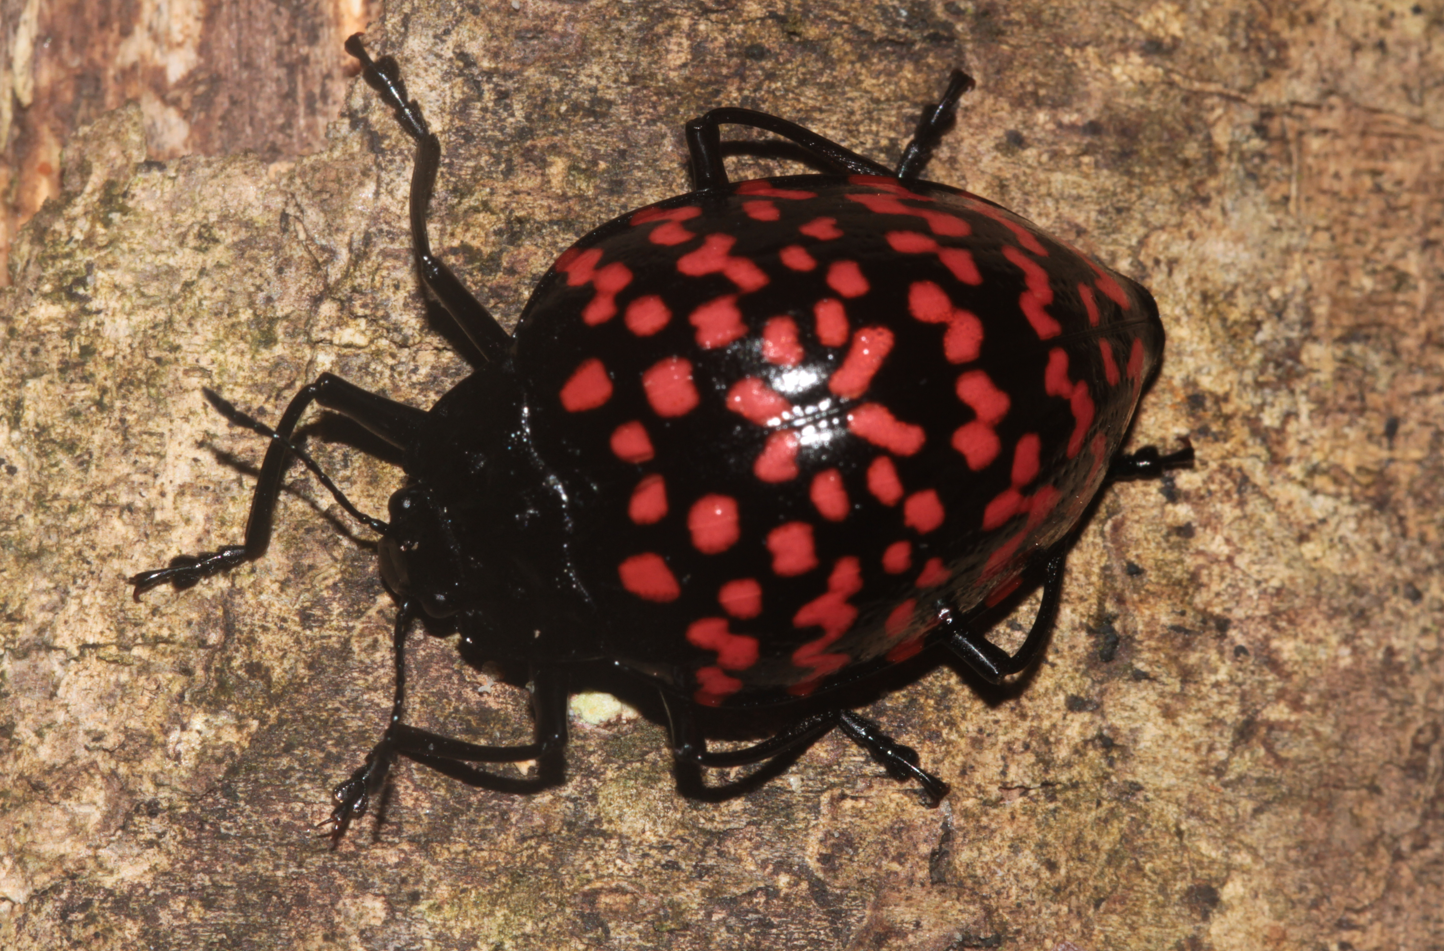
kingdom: Animalia
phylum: Arthropoda
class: Insecta
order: Coleoptera
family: Erotylidae
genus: Erotylus
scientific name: Erotylus giganteus
